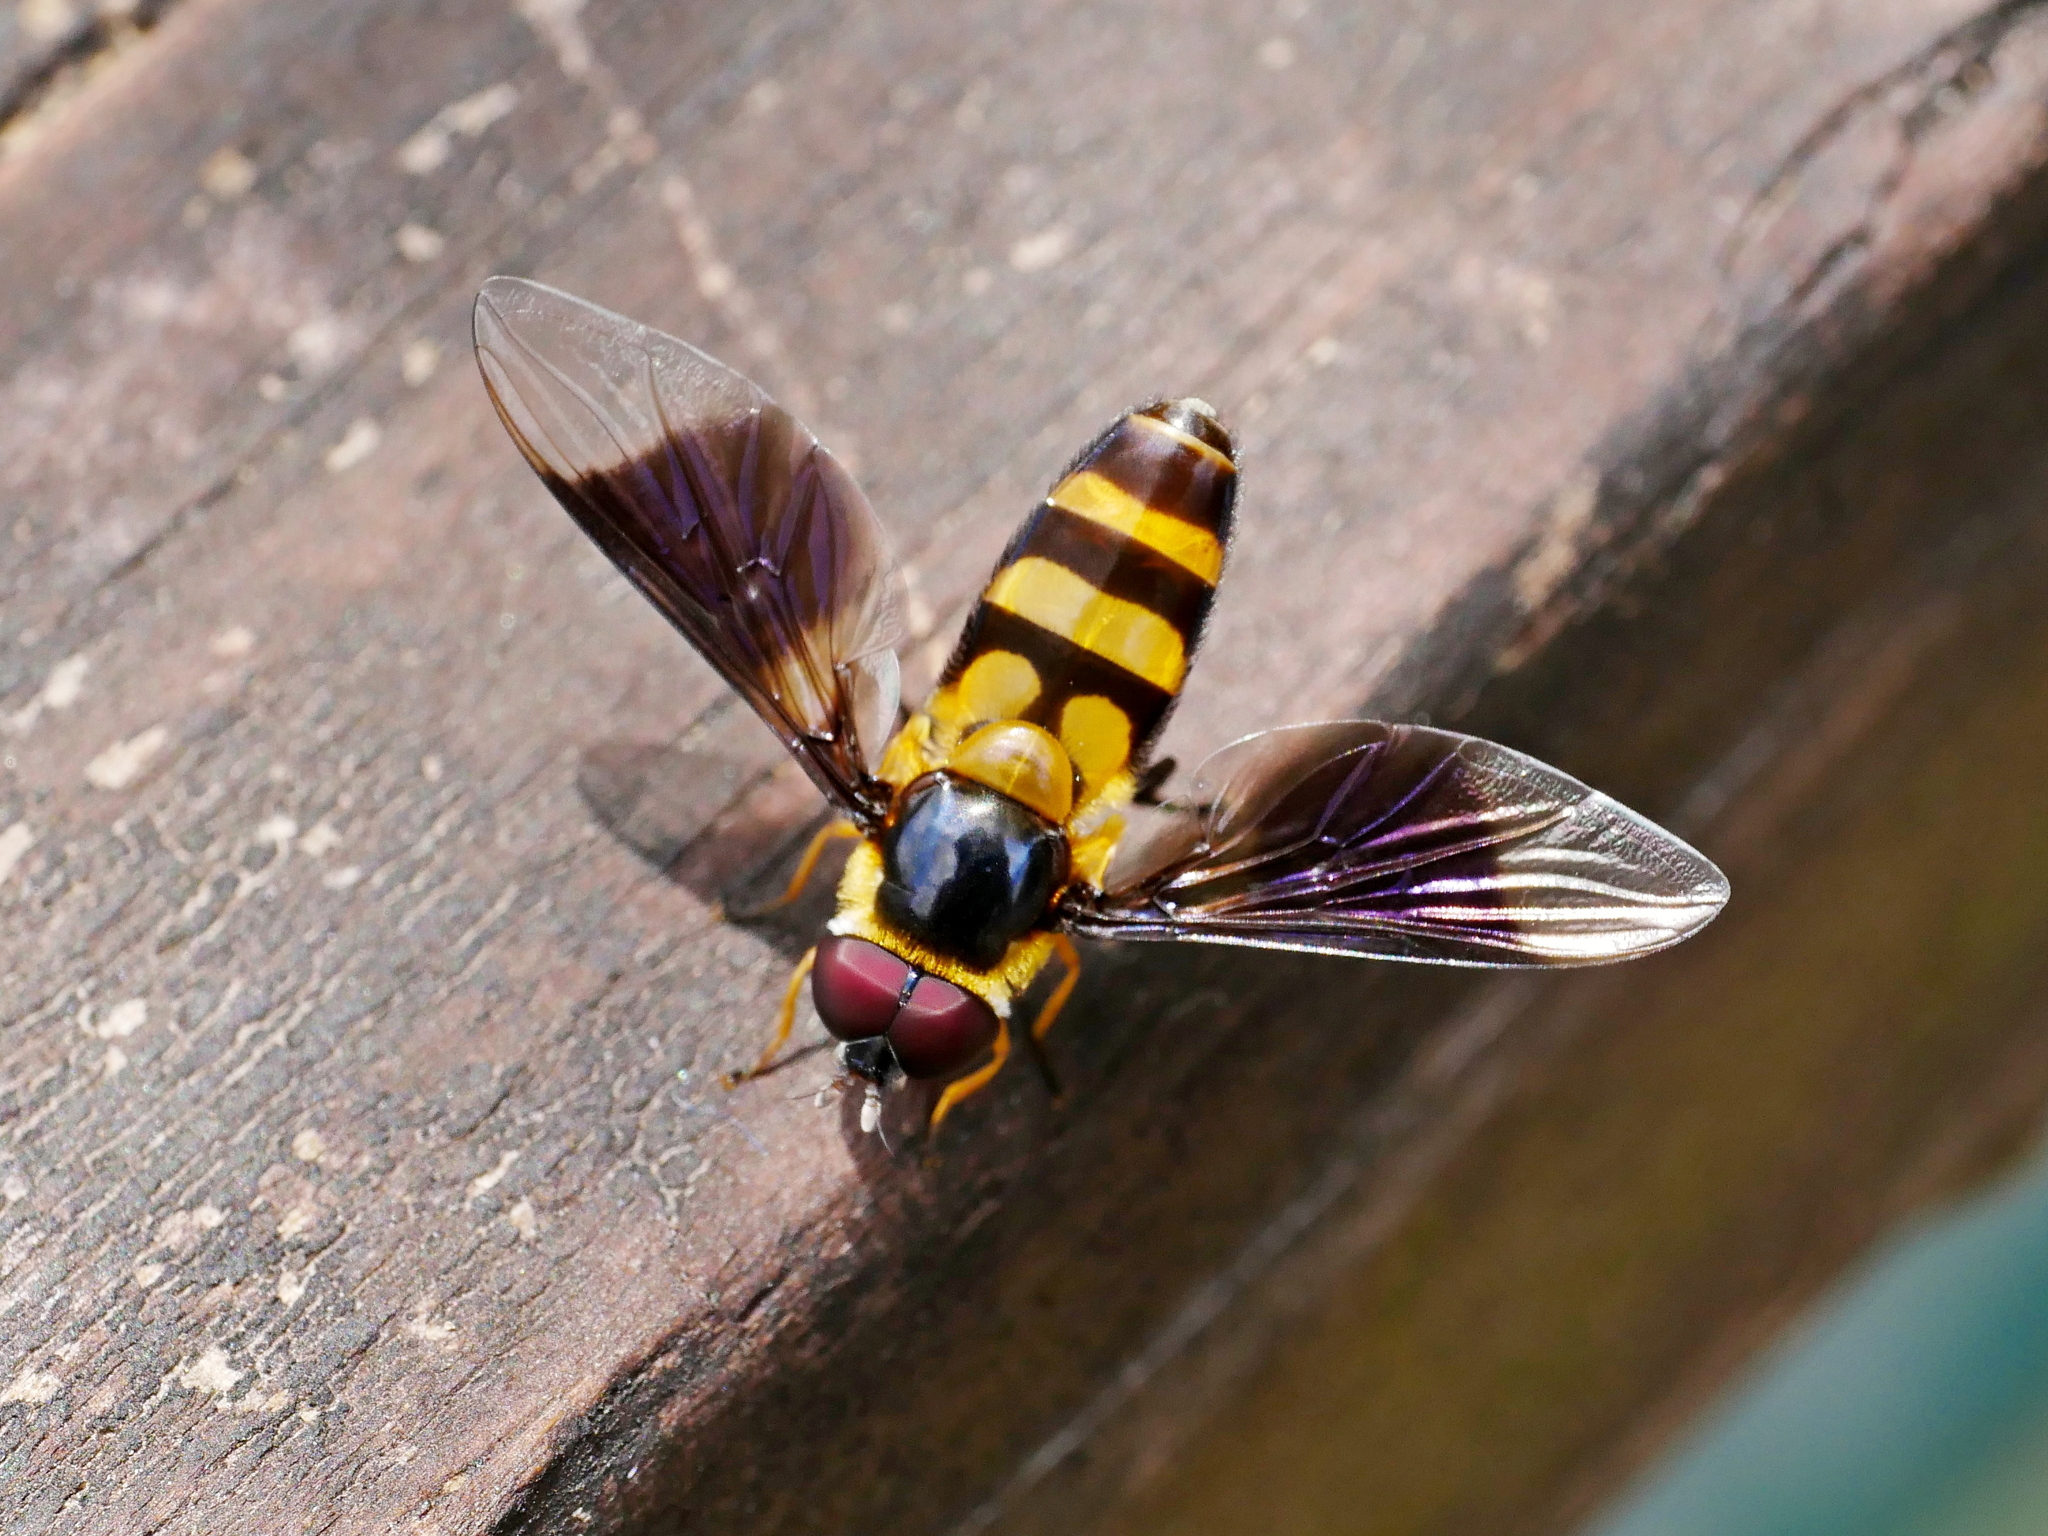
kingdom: Animalia
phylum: Arthropoda
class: Insecta
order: Diptera
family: Syrphidae
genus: Dideopsis
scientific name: Dideopsis aegrota
